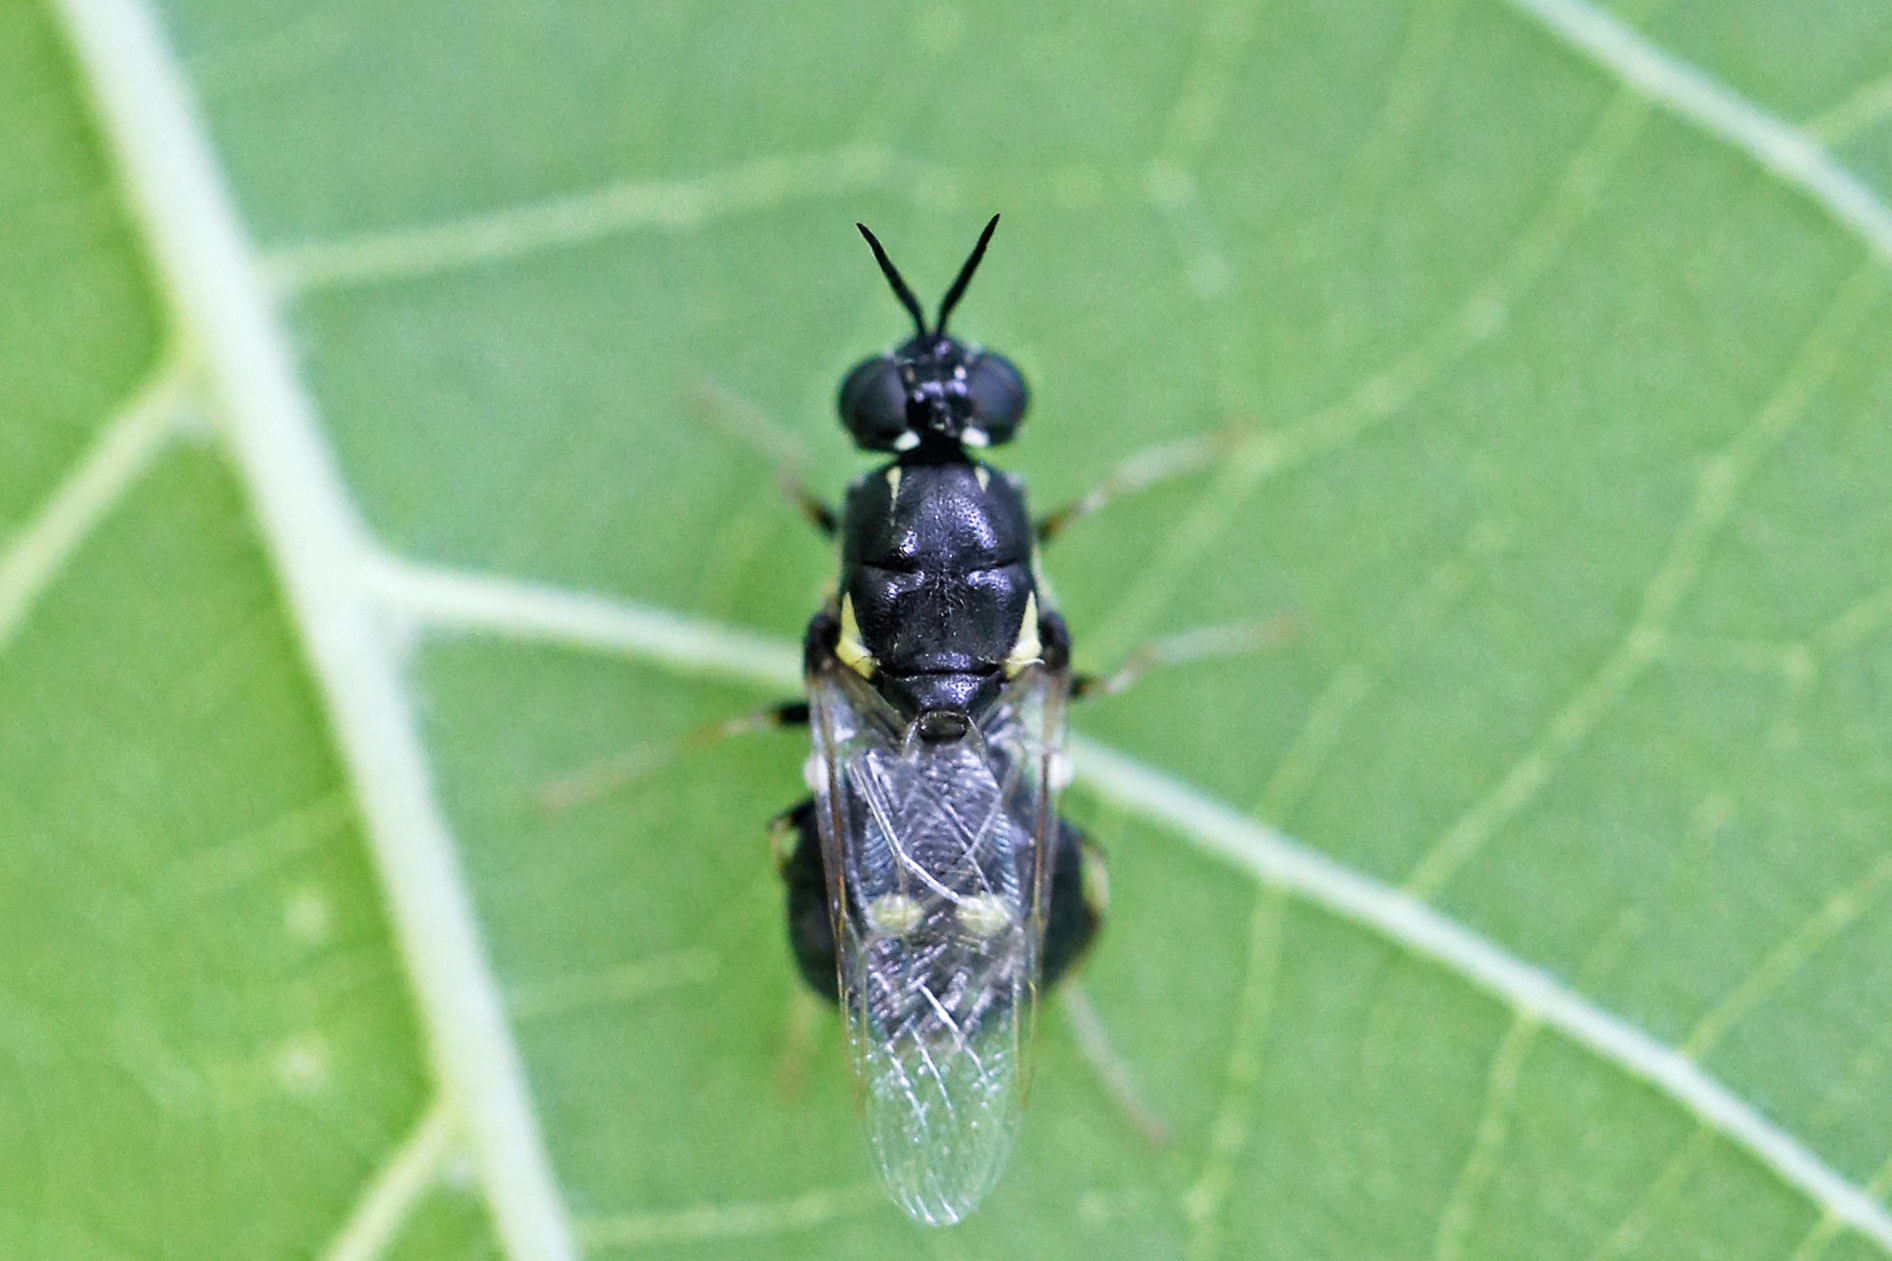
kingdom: Animalia
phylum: Arthropoda
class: Insecta
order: Diptera
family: Stratiomyidae
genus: Caloparyphus
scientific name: Caloparyphus tetraspilus
